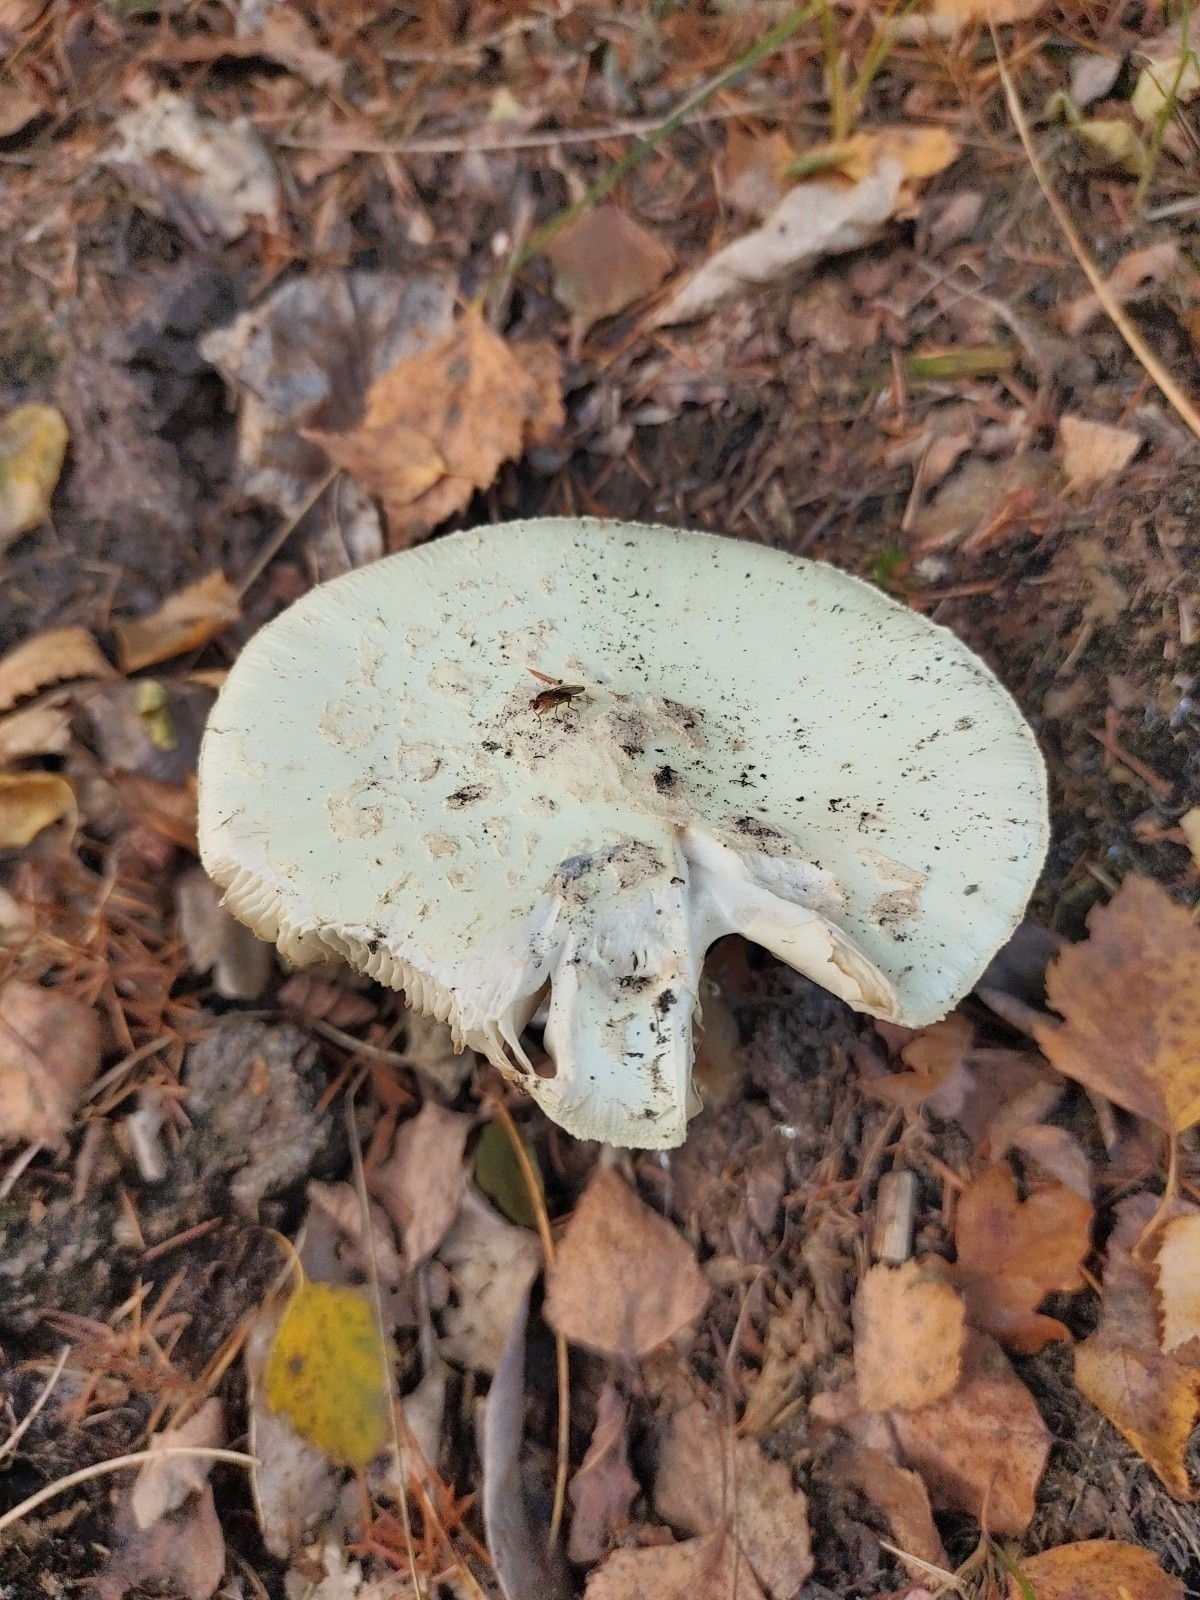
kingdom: Fungi
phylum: Basidiomycota
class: Agaricomycetes
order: Agaricales
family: Amanitaceae
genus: Amanita
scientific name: Amanita citrina
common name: False death-cap
